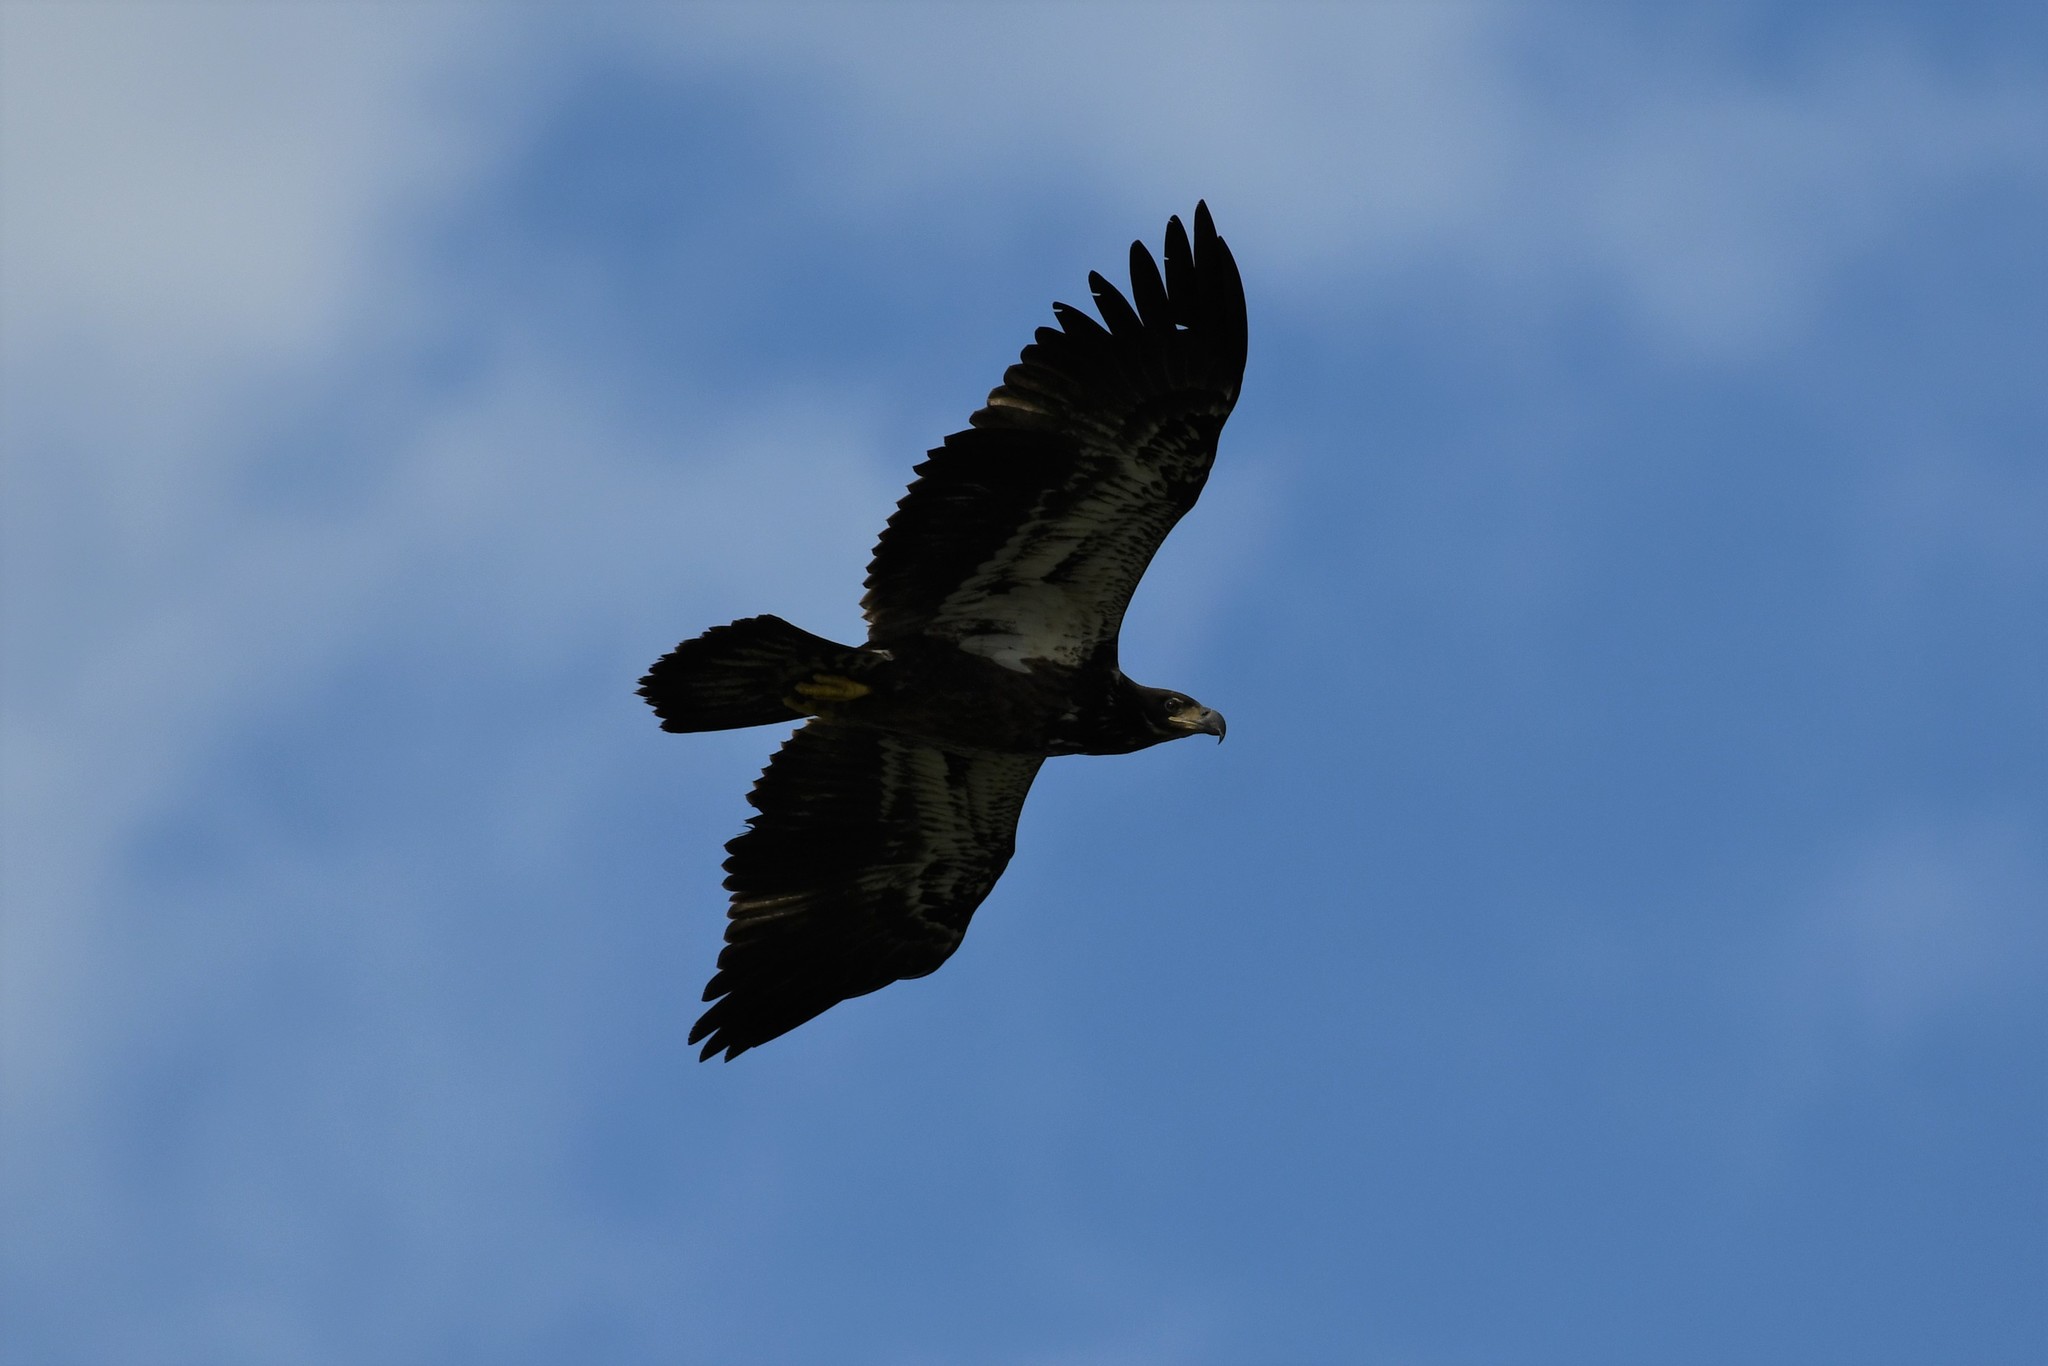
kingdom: Animalia
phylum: Chordata
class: Aves
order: Accipitriformes
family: Accipitridae
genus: Haliaeetus
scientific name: Haliaeetus leucocephalus
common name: Bald eagle
